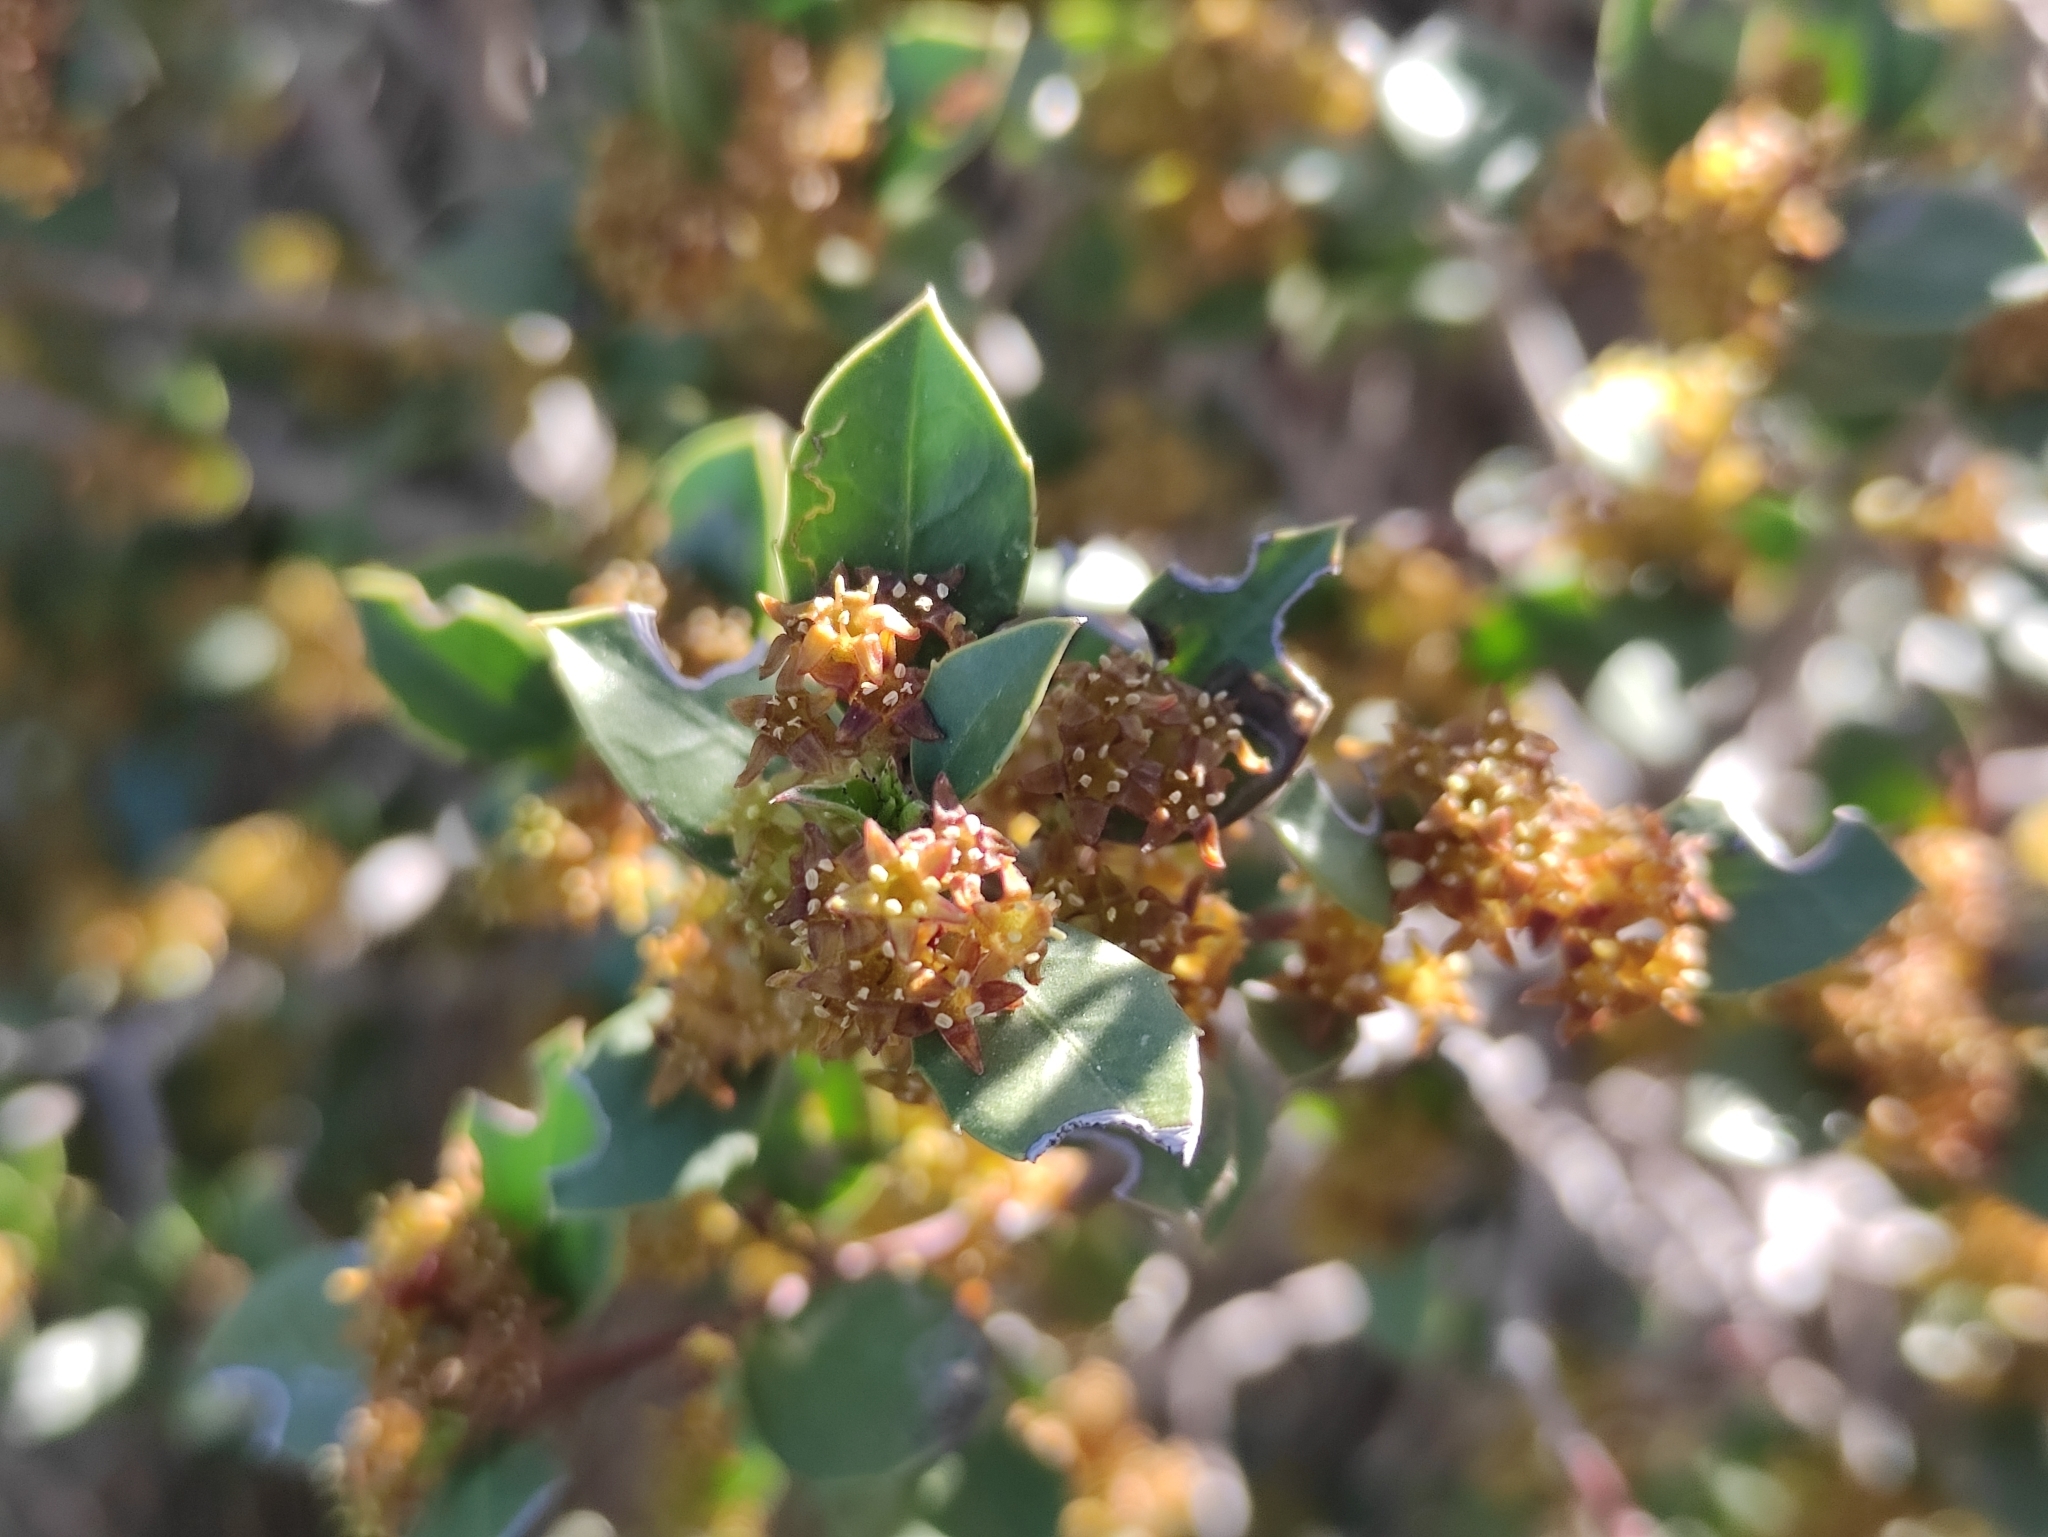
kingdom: Plantae
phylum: Tracheophyta
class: Magnoliopsida
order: Rosales
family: Rhamnaceae
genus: Rhamnus
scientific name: Rhamnus alaternus
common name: Mediterranean buckthorn
